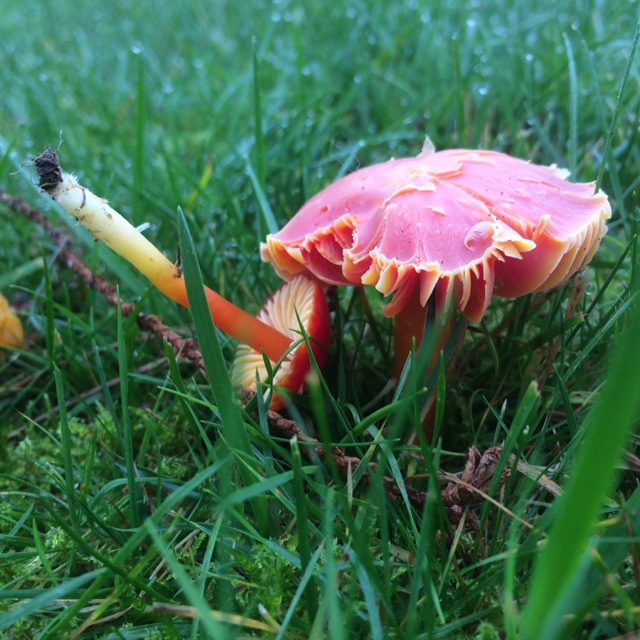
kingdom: Fungi
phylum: Basidiomycota
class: Agaricomycetes
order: Agaricales
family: Hygrophoraceae
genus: Hygrocybe
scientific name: Hygrocybe coccinea
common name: Scarlet hood
